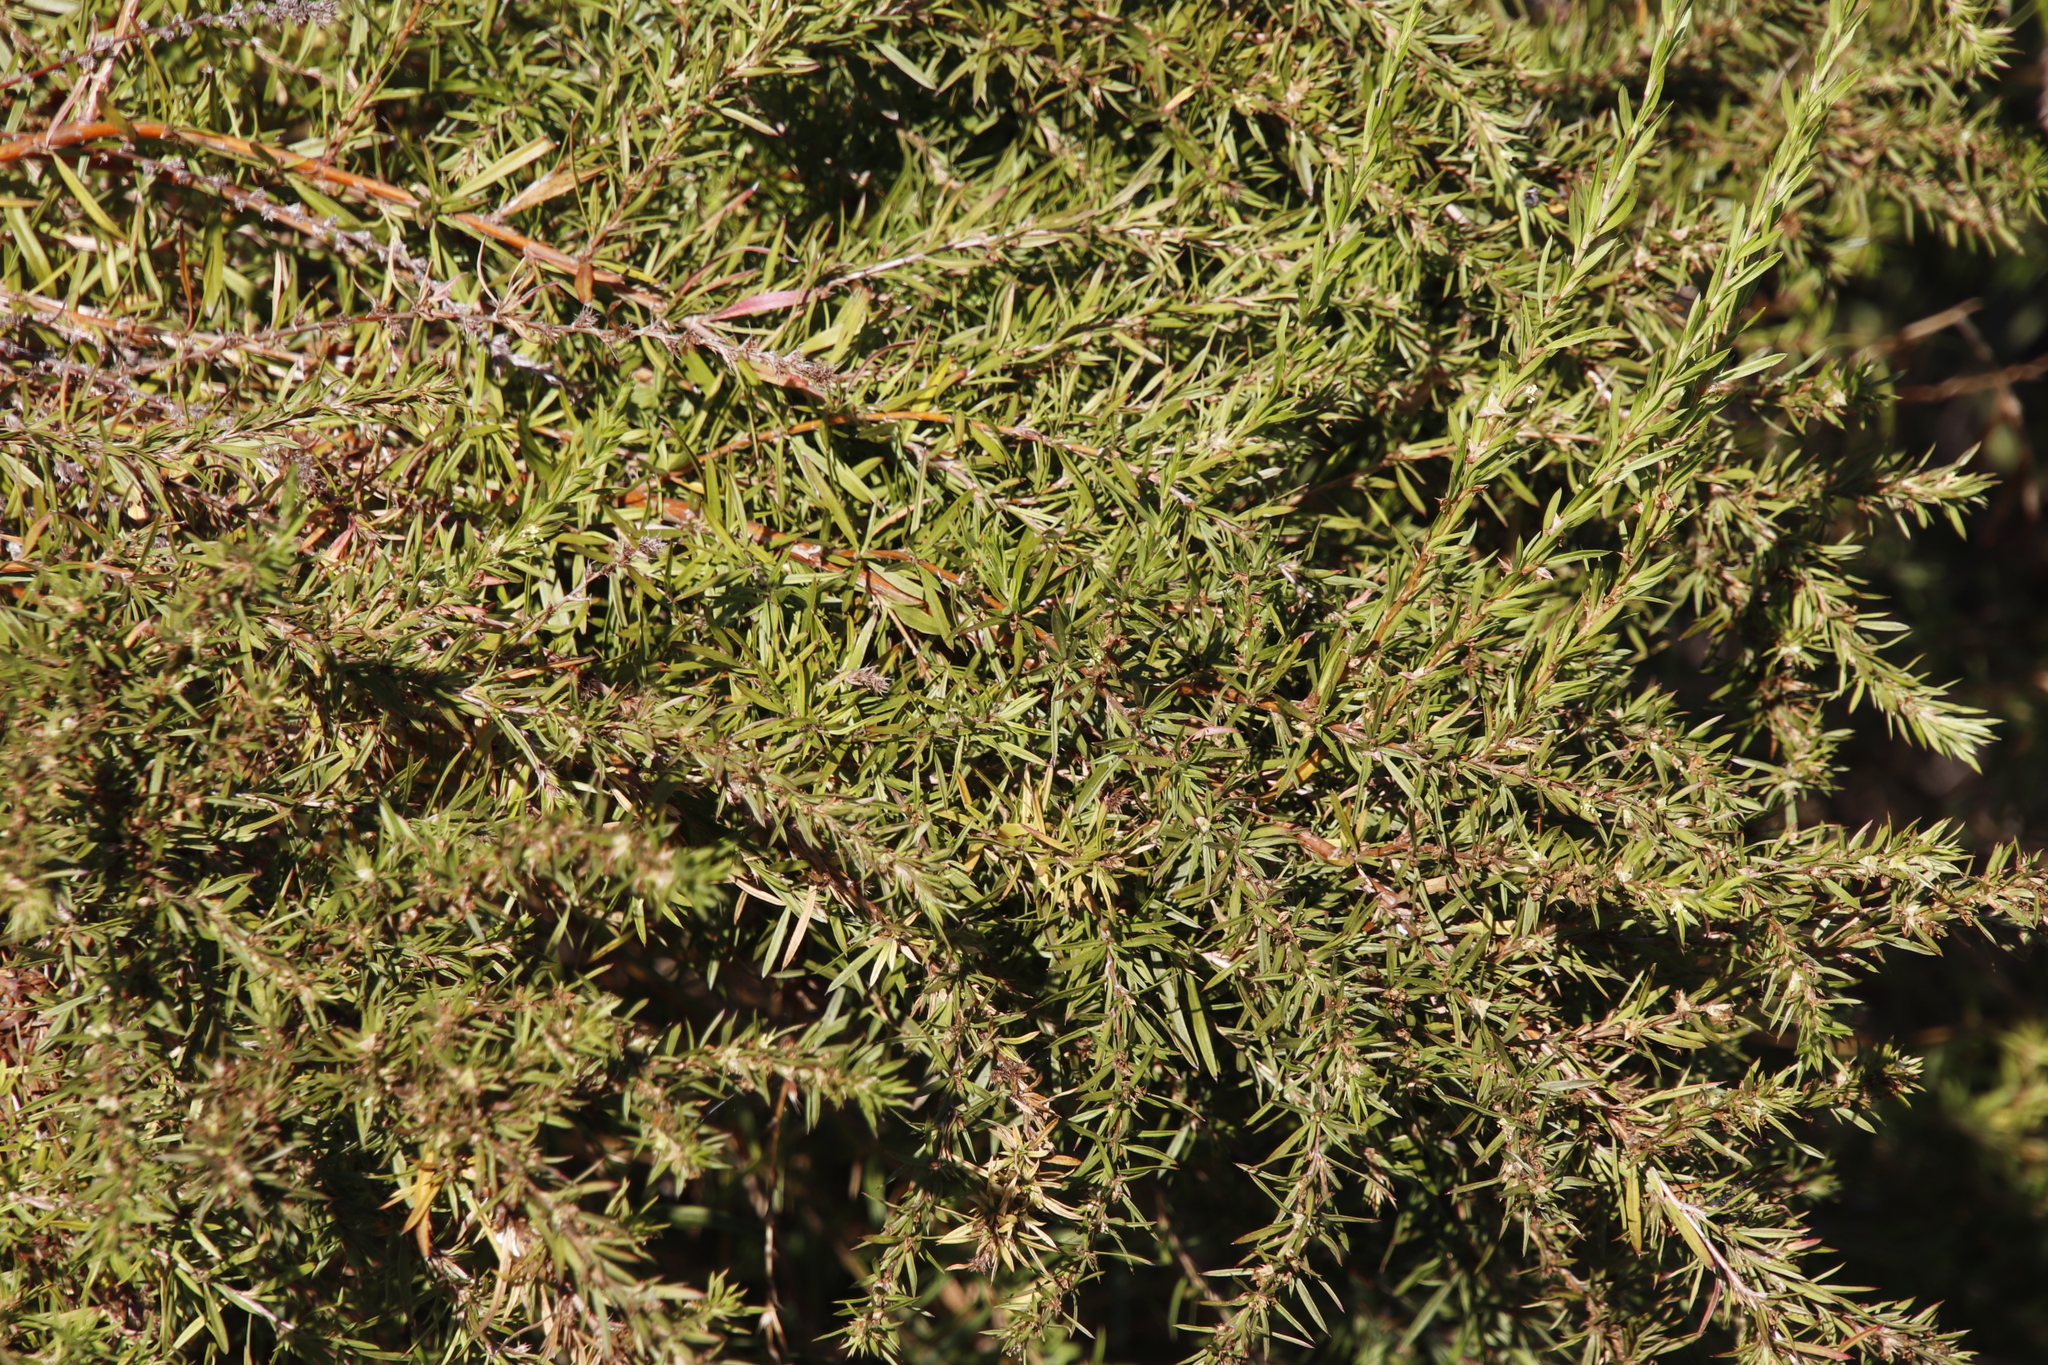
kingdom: Plantae
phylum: Tracheophyta
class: Magnoliopsida
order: Rosales
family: Rosaceae
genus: Cliffortia
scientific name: Cliffortia strobilifera
